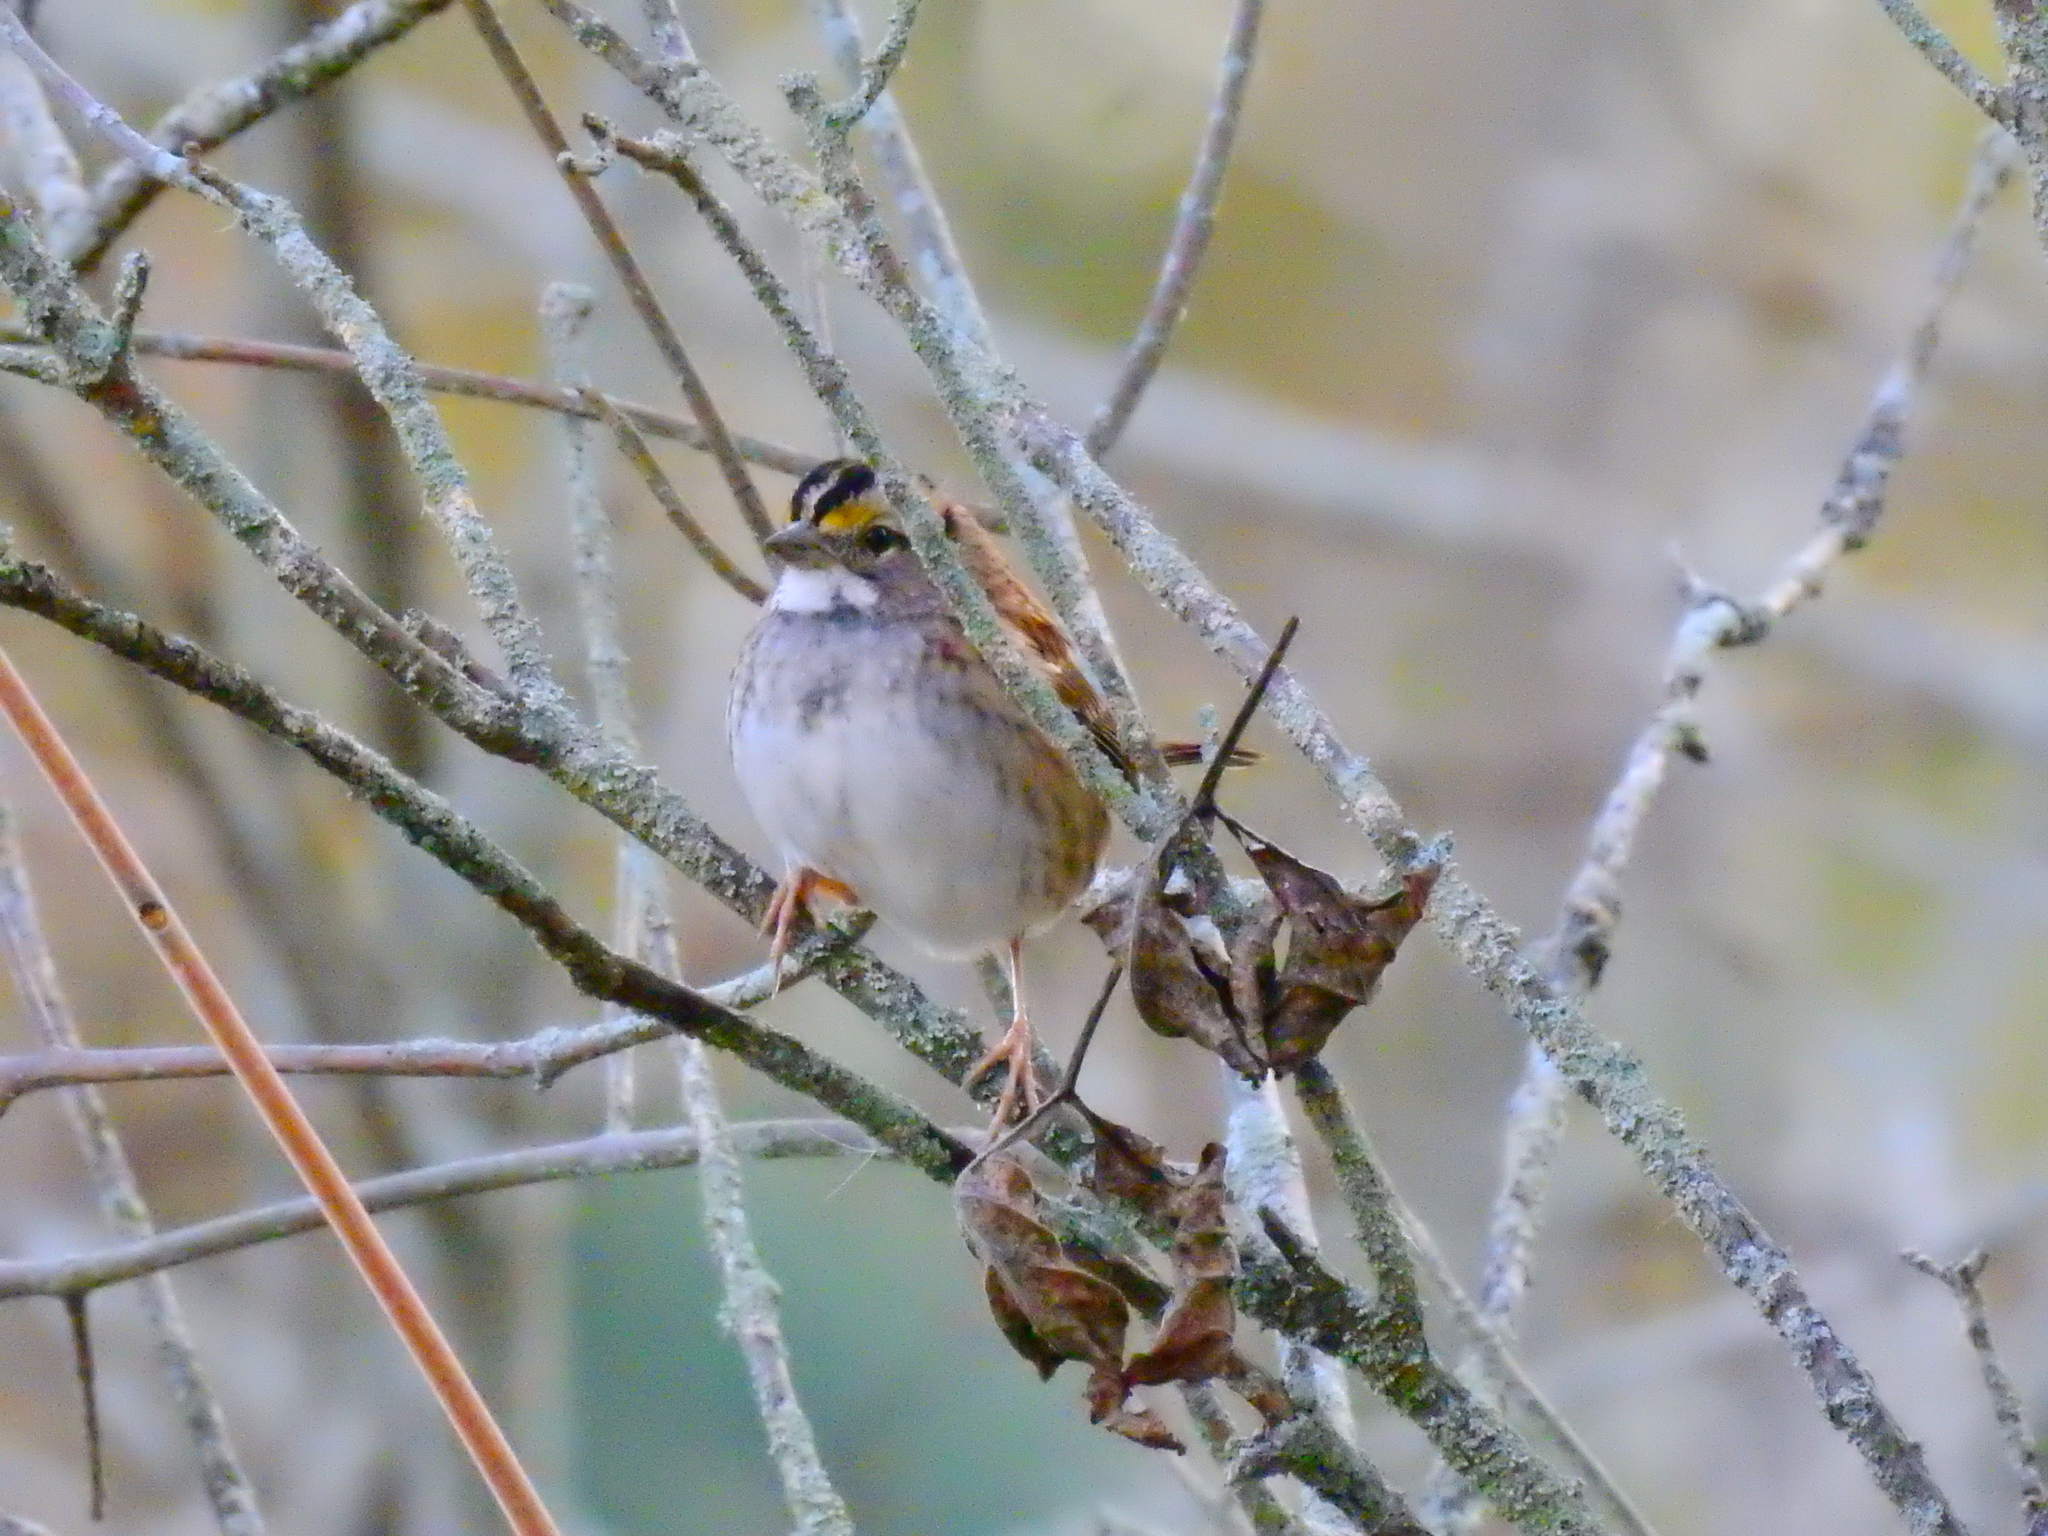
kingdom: Animalia
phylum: Chordata
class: Aves
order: Passeriformes
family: Passerellidae
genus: Zonotrichia
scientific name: Zonotrichia albicollis
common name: White-throated sparrow
